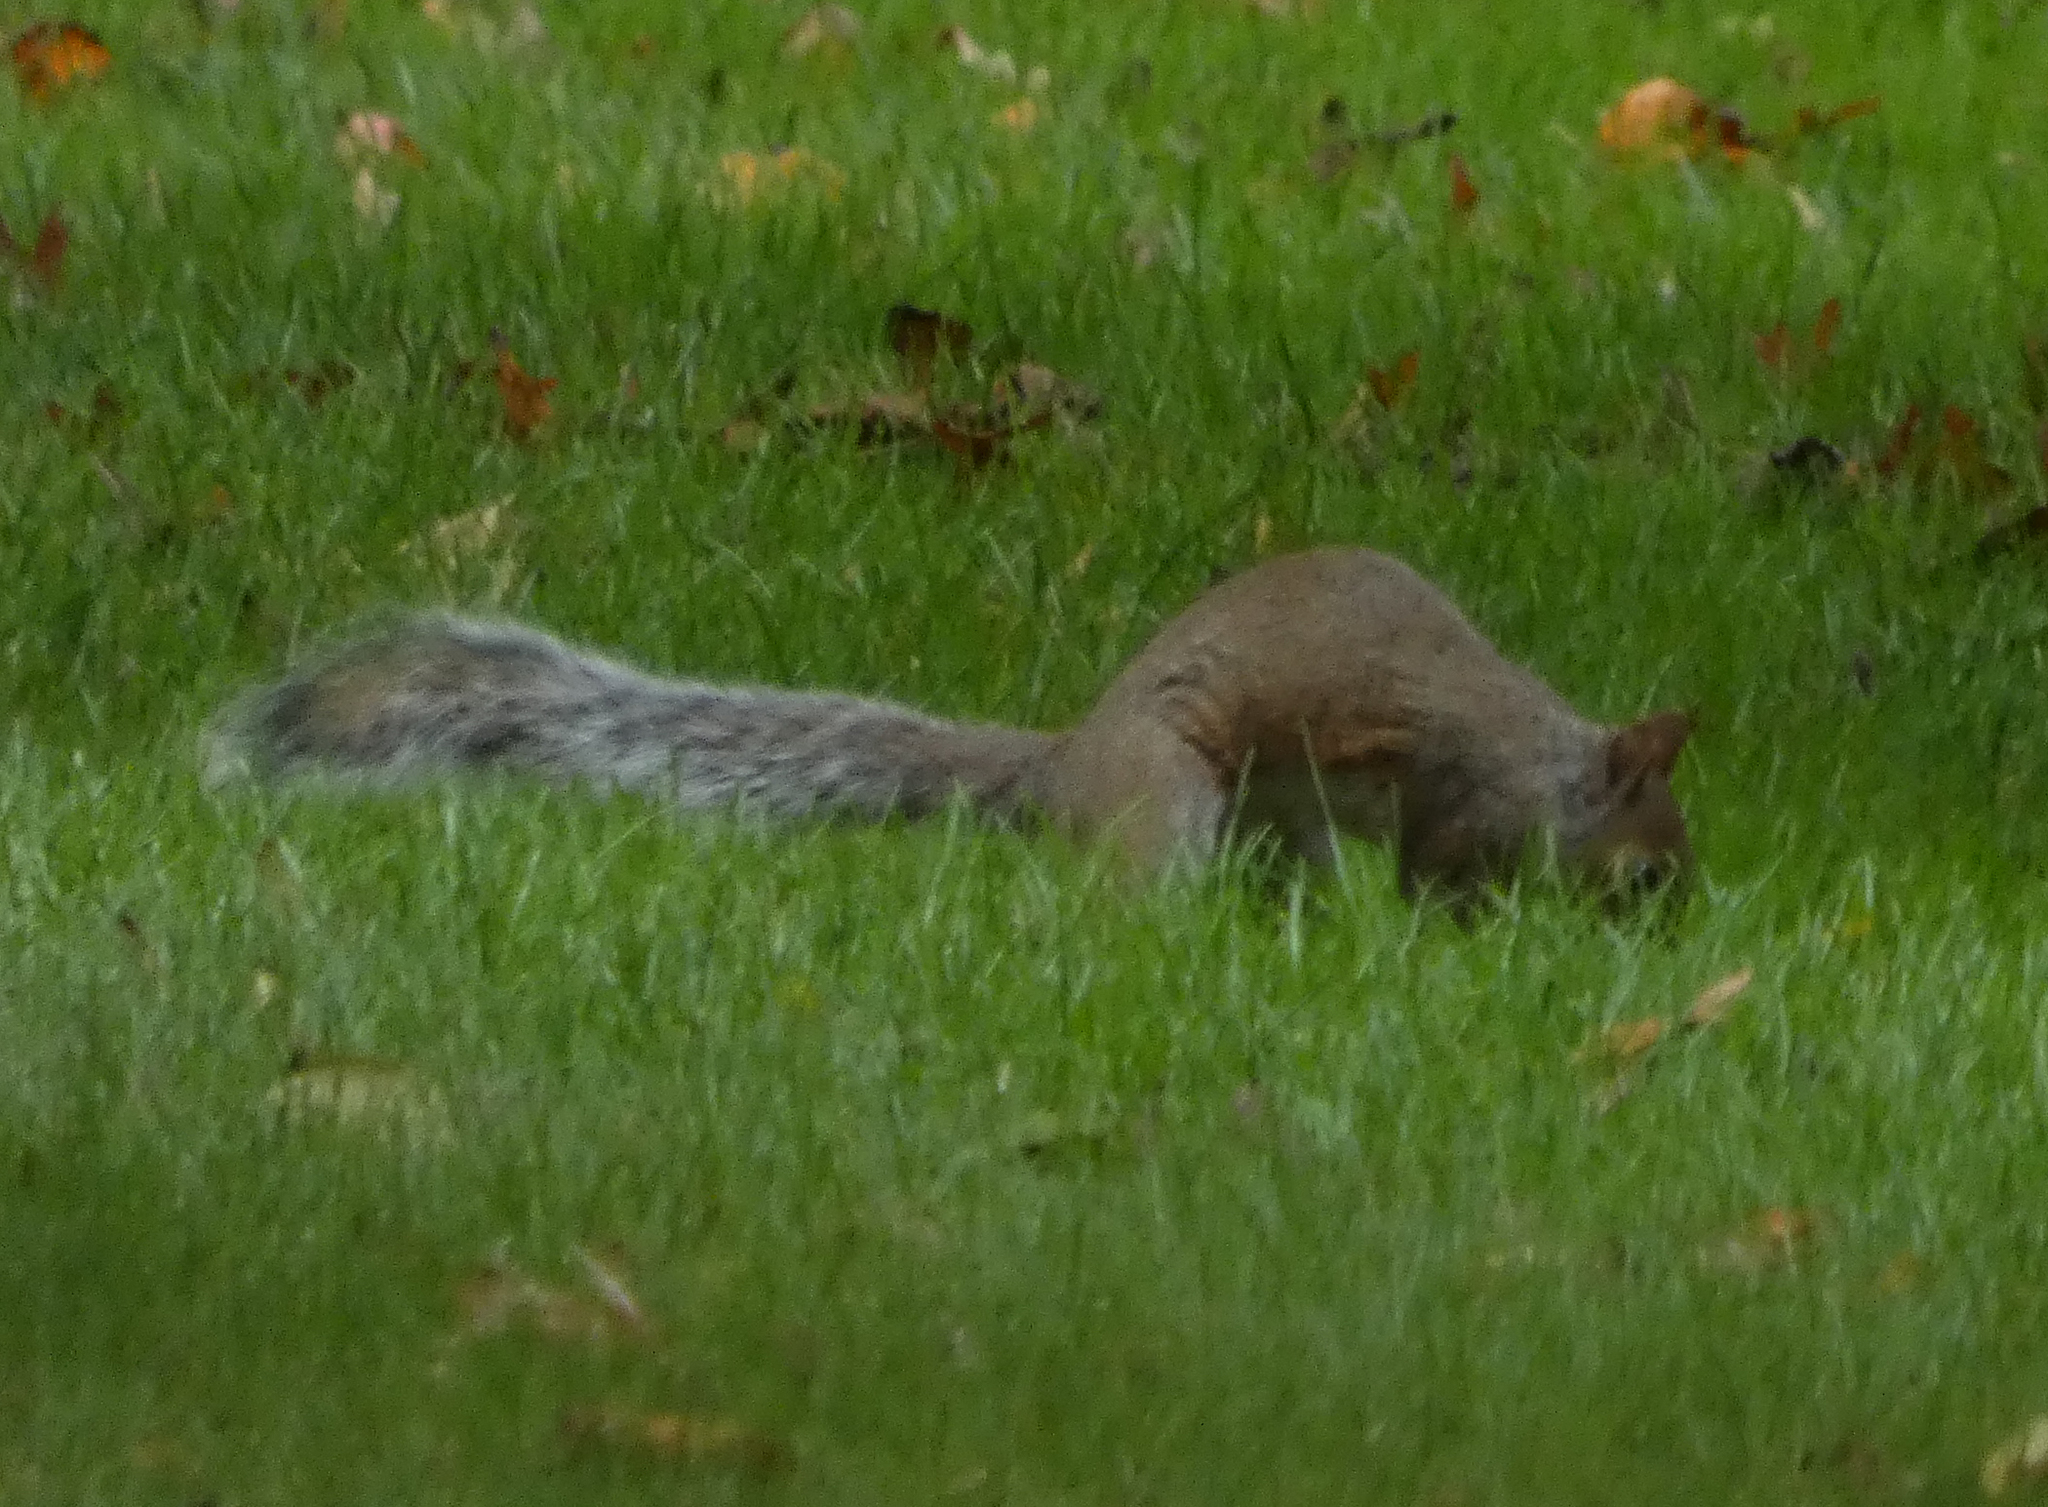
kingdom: Animalia
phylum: Chordata
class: Mammalia
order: Rodentia
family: Sciuridae
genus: Sciurus
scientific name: Sciurus carolinensis
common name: Eastern gray squirrel
